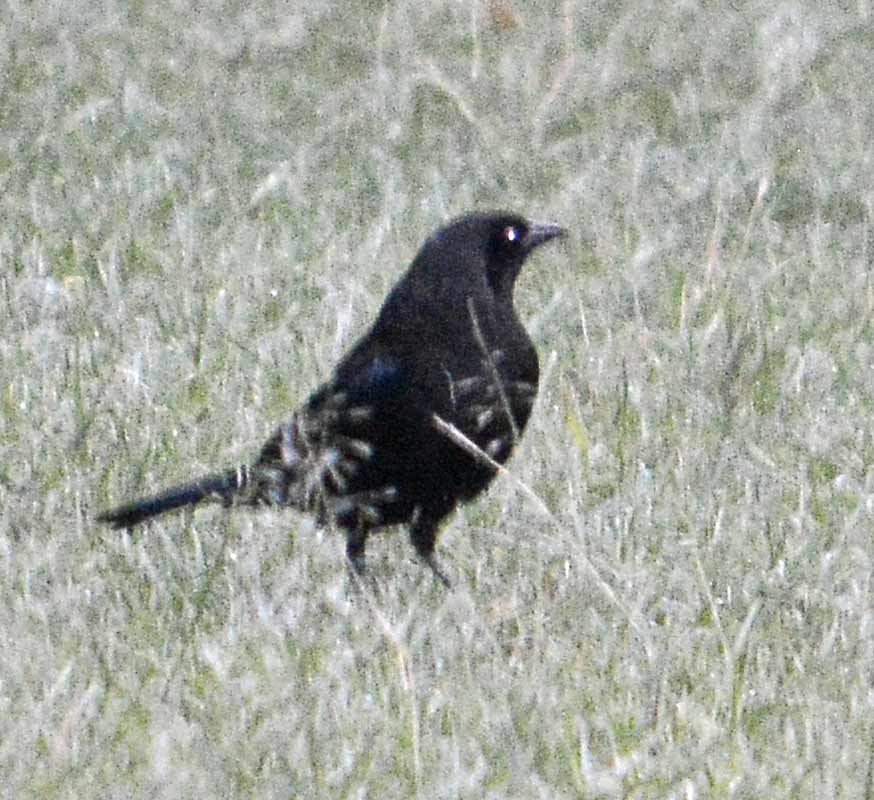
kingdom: Animalia
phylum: Chordata
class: Aves
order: Passeriformes
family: Icteridae
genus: Molothrus
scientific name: Molothrus aeneus
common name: Bronzed cowbird
